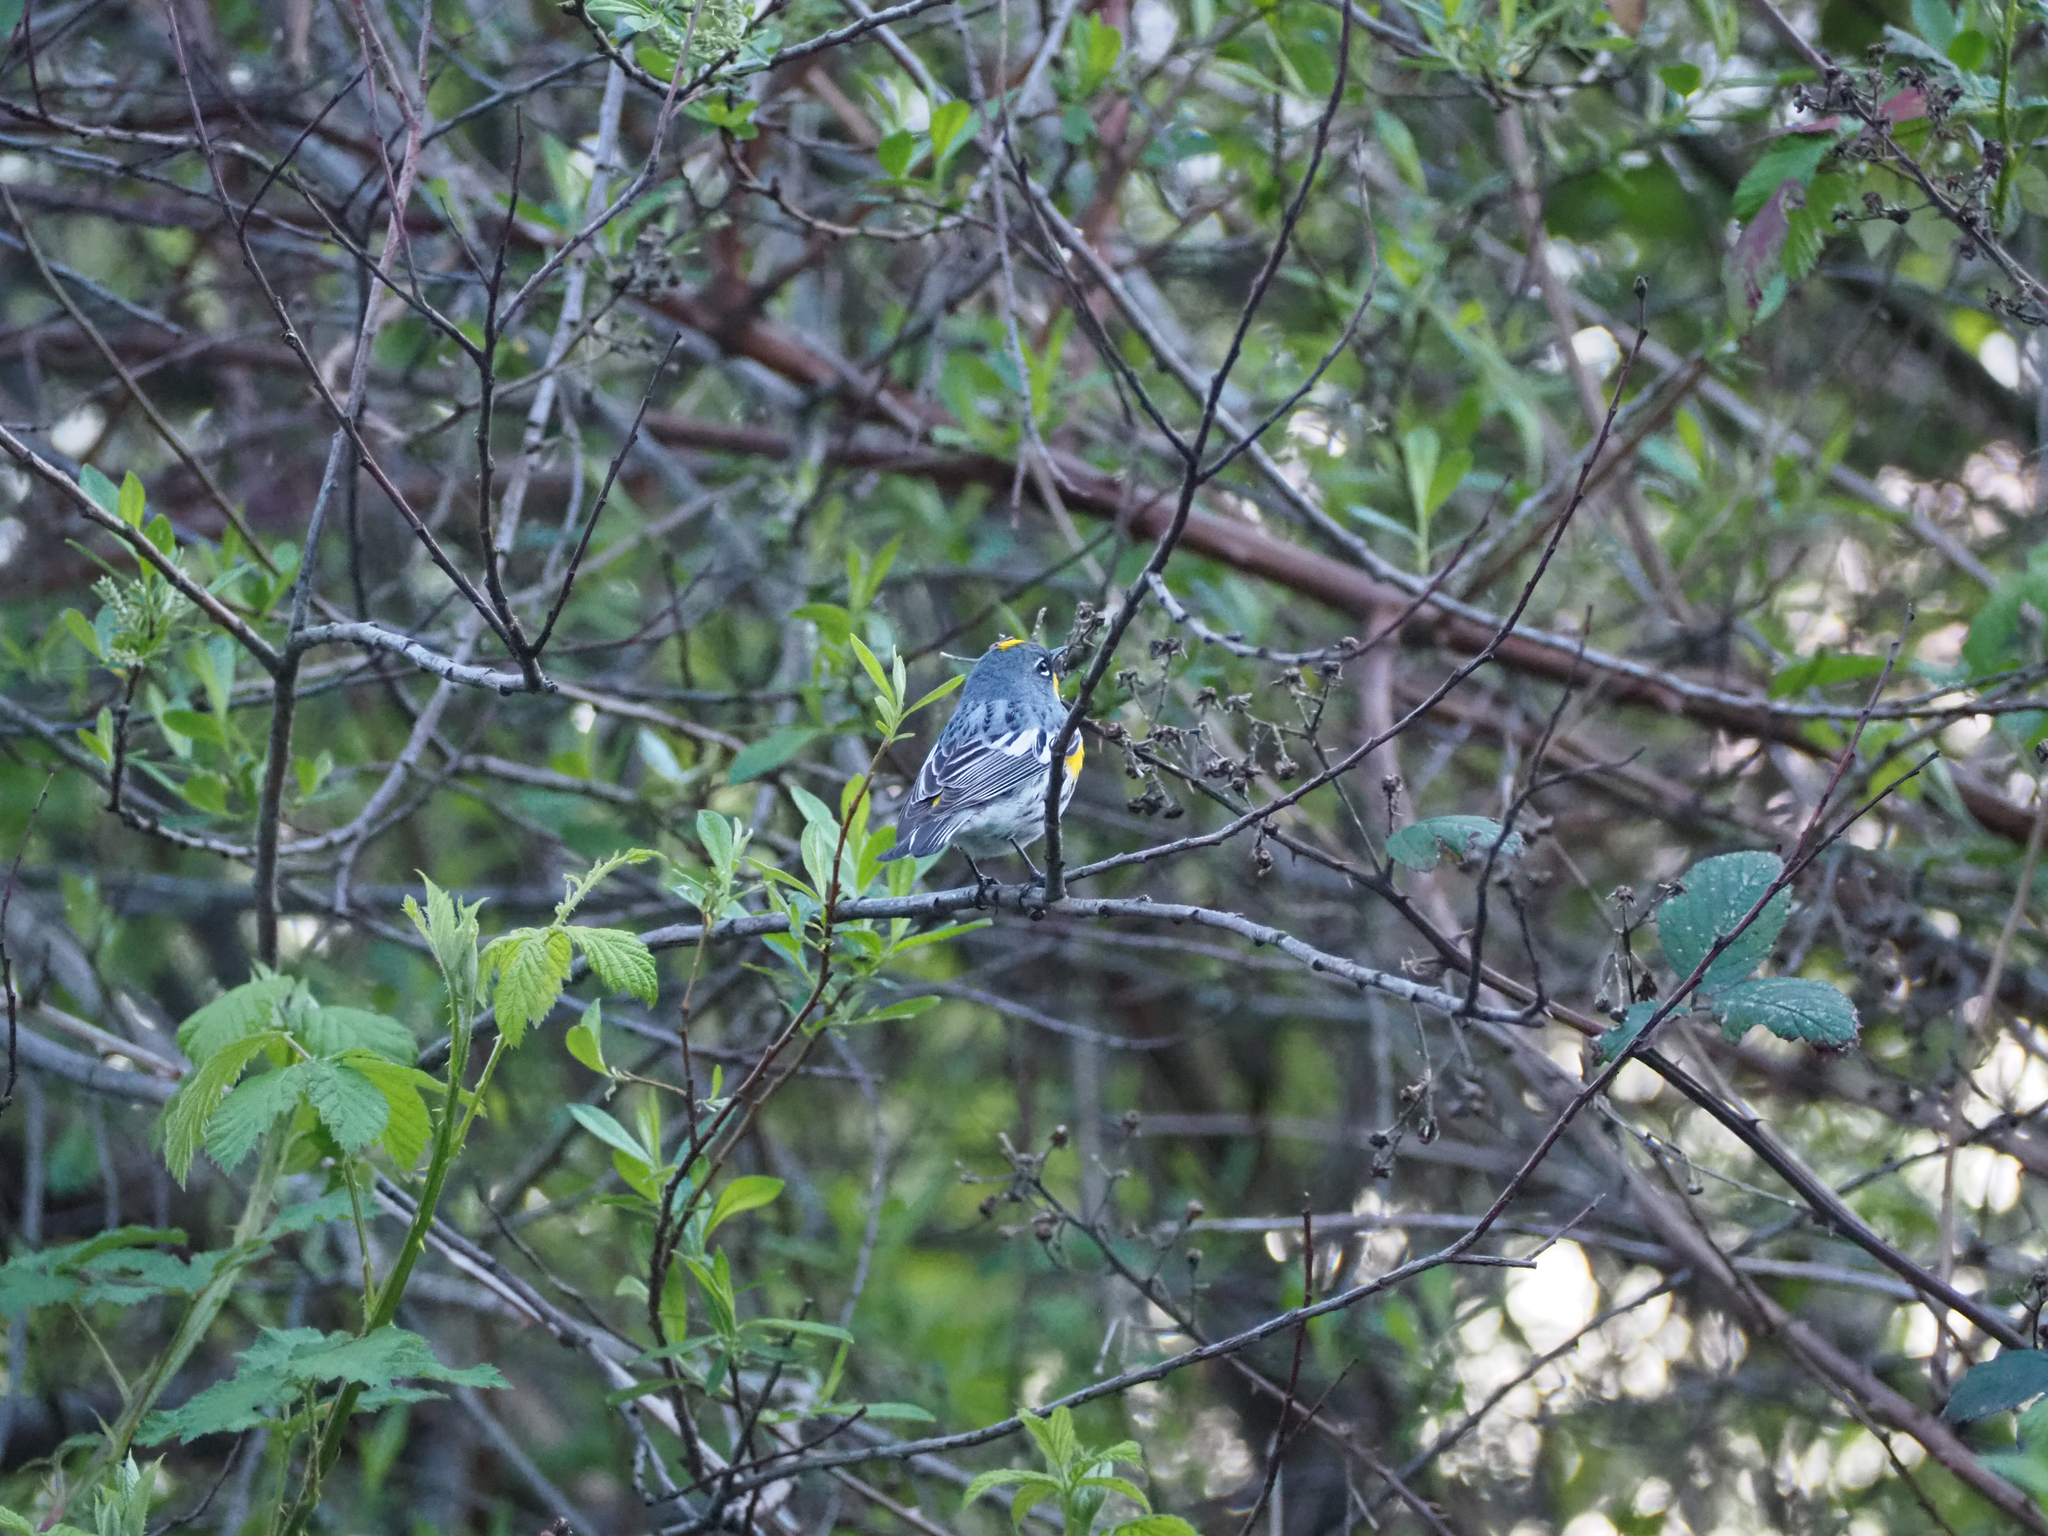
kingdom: Animalia
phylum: Chordata
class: Aves
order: Passeriformes
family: Parulidae
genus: Setophaga
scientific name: Setophaga coronata
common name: Myrtle warbler
